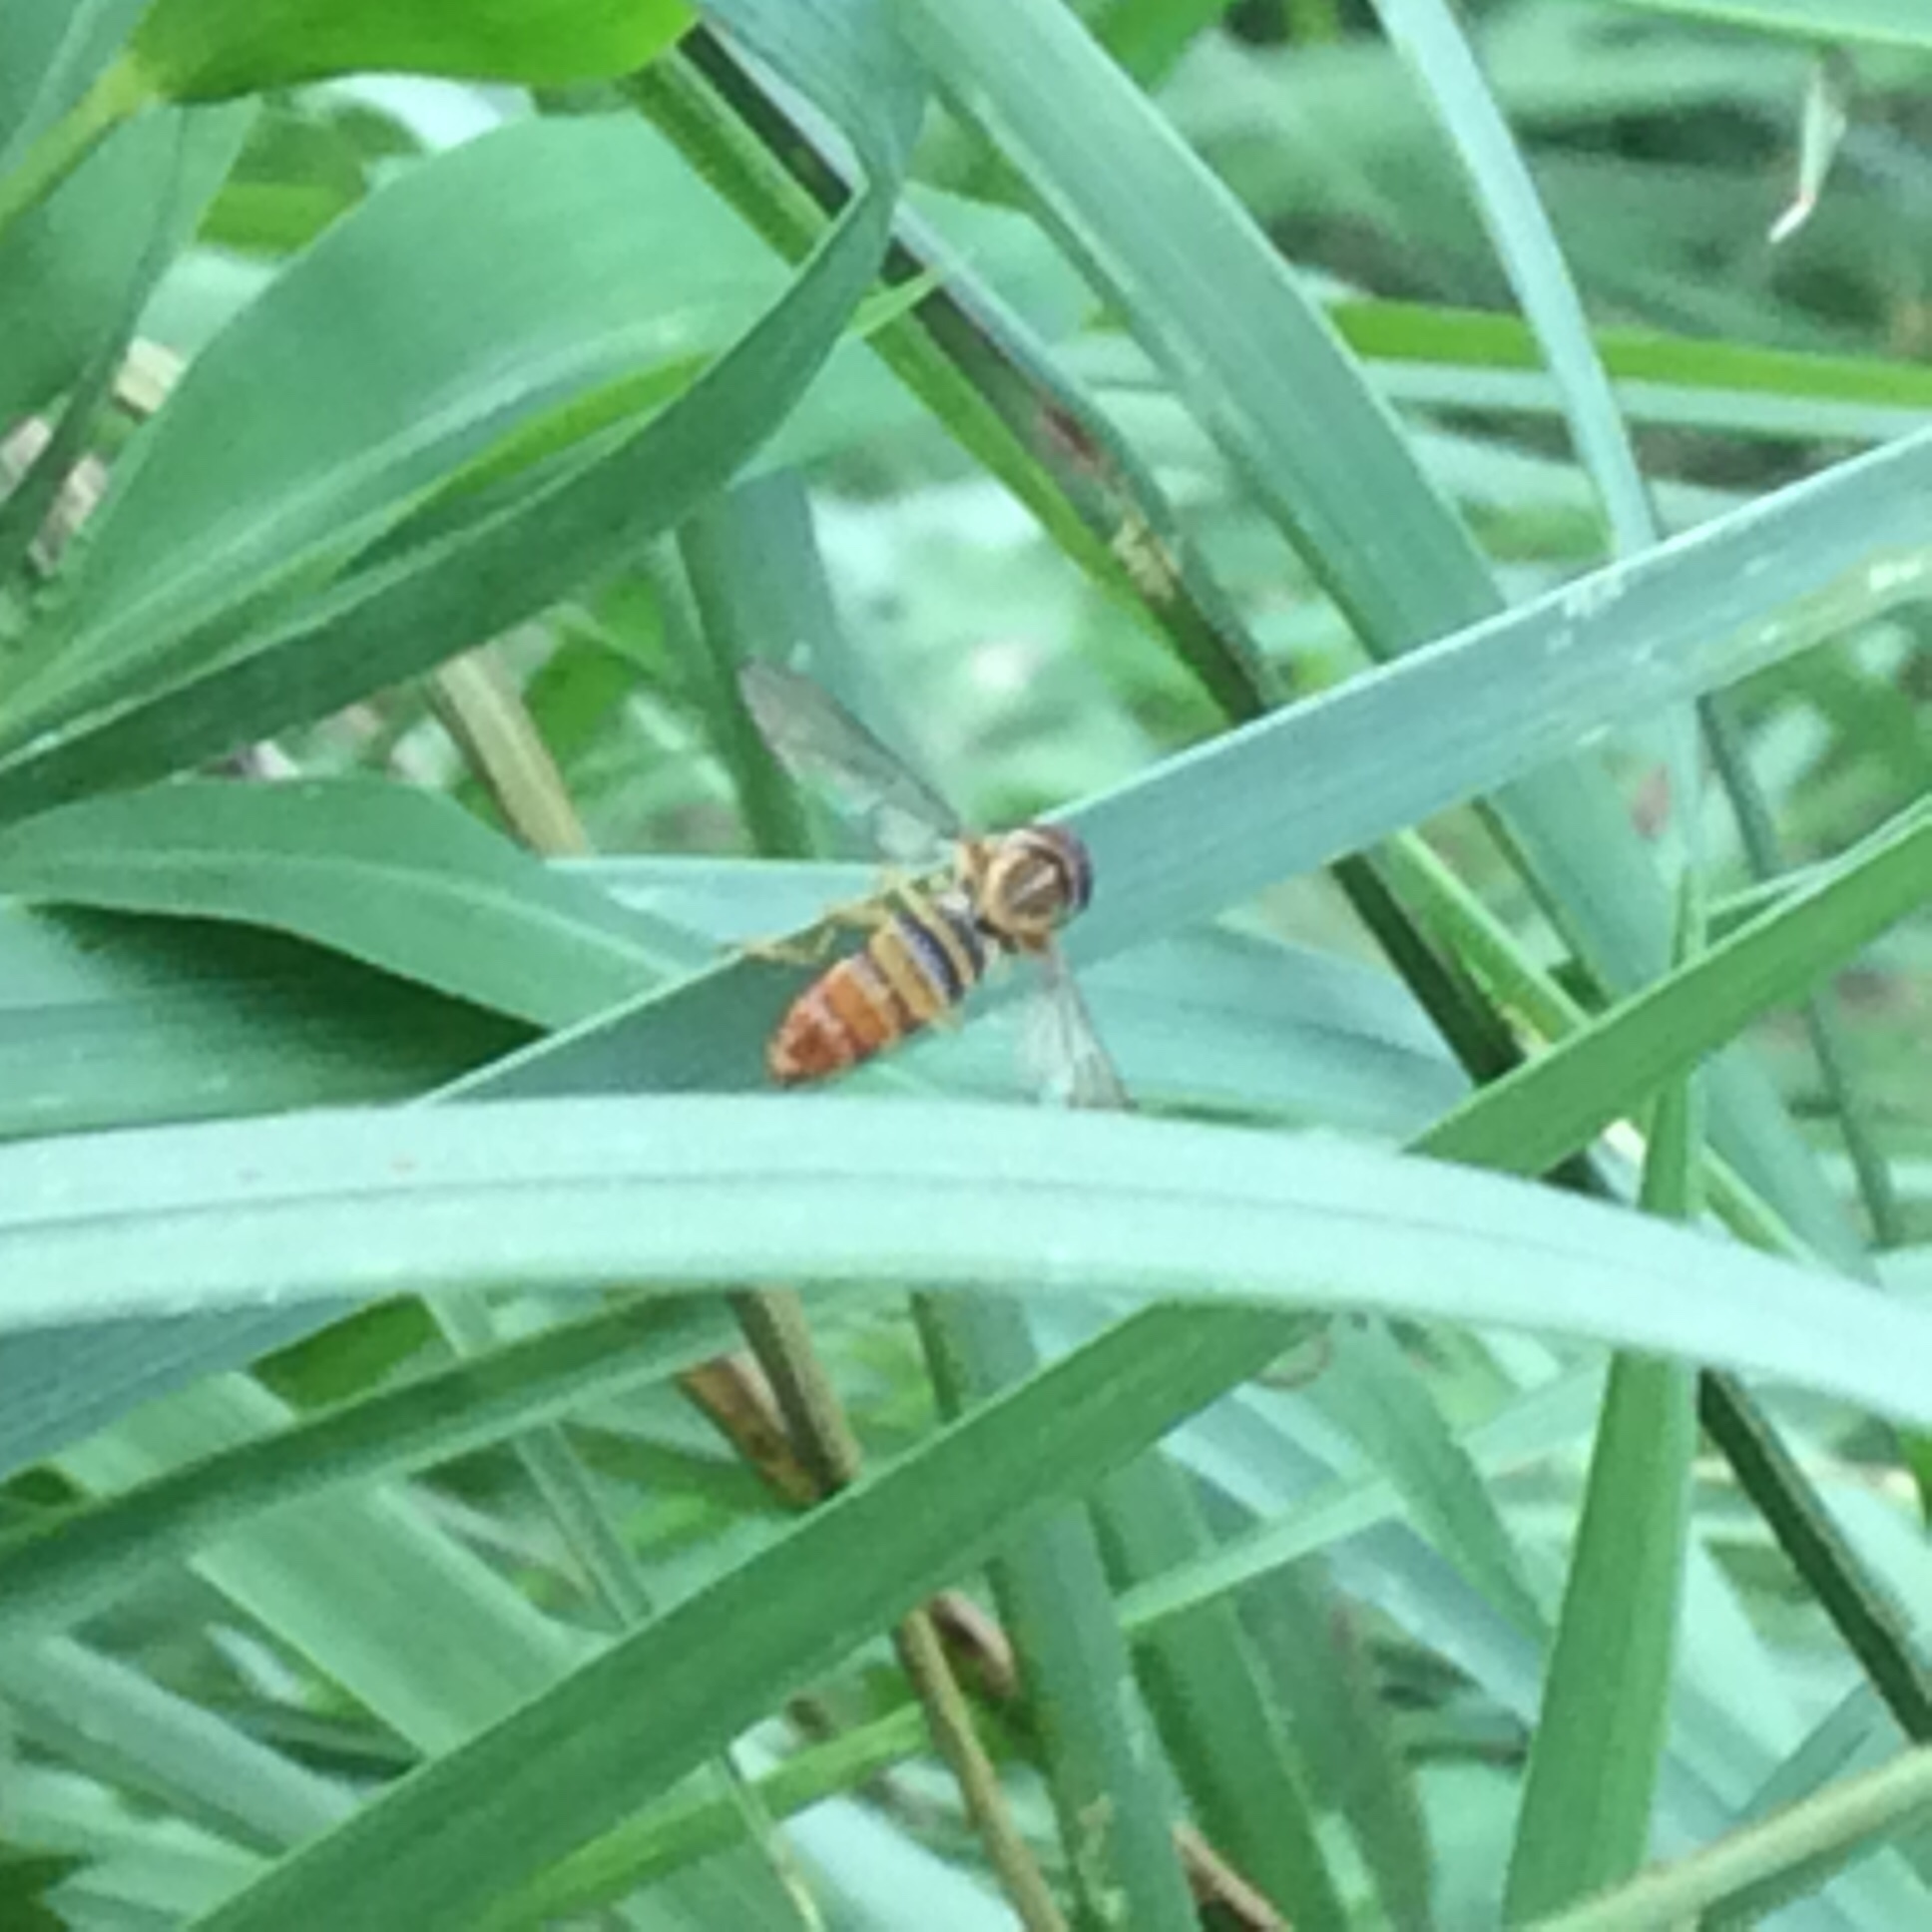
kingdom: Animalia
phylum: Arthropoda
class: Insecta
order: Diptera
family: Syrphidae
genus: Toxomerus
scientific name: Toxomerus politus
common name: Maize calligrapher
